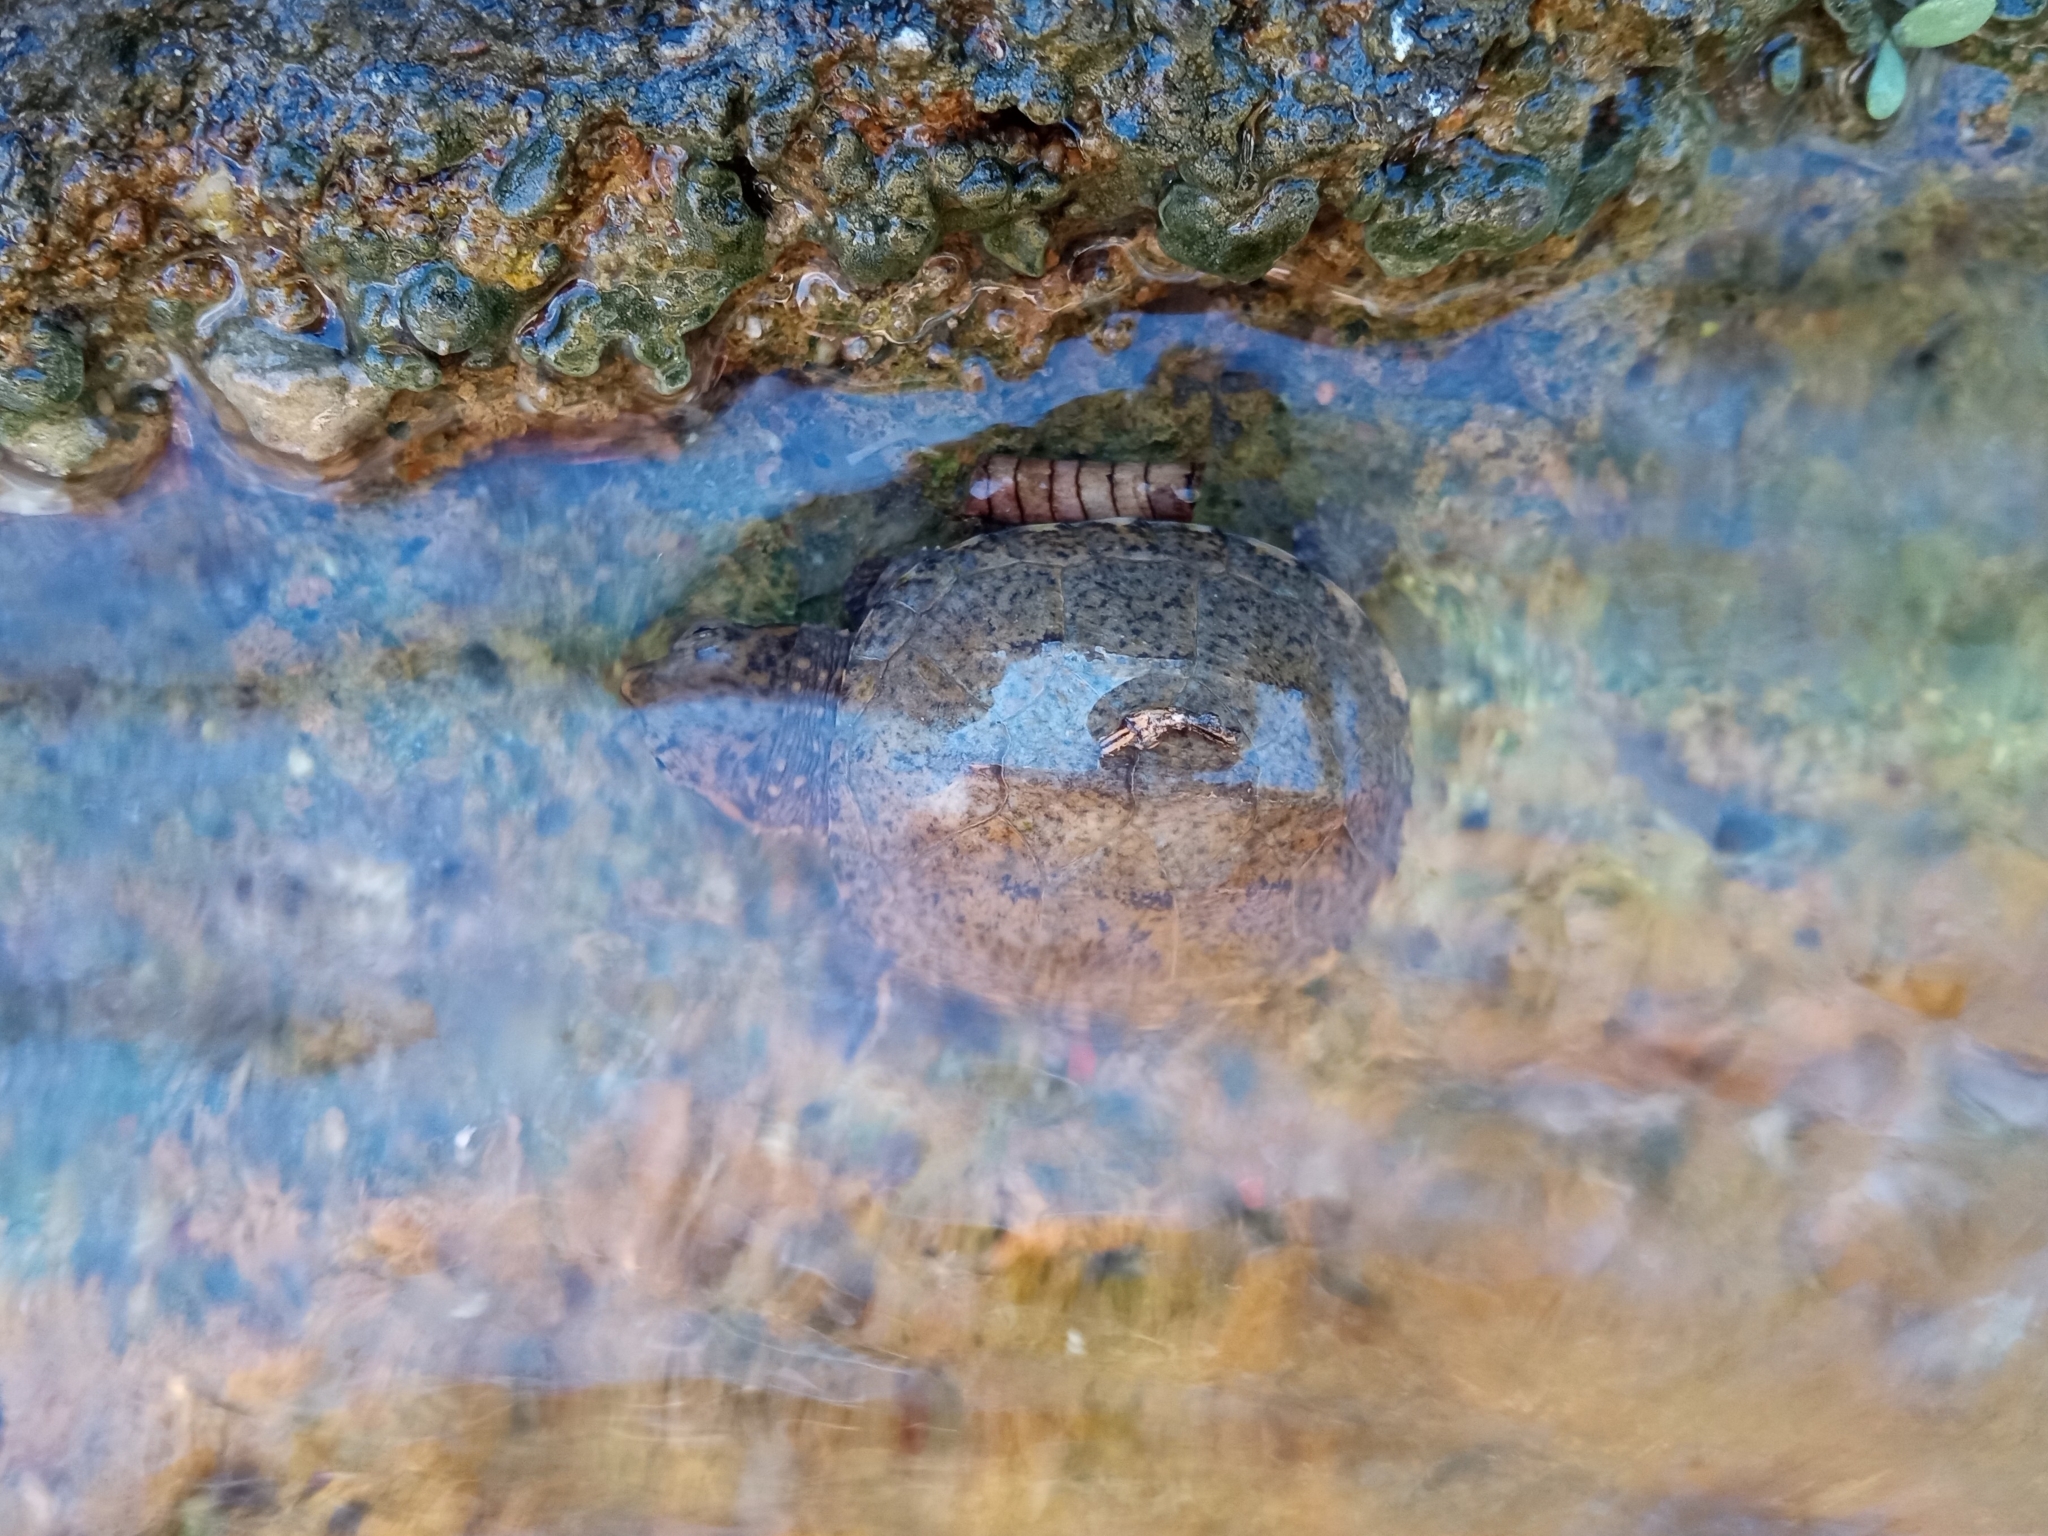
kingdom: Animalia
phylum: Chordata
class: Testudines
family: Kinosternidae
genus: Kinosternon
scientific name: Kinosternon sonoriense
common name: Sonora mud turtle
